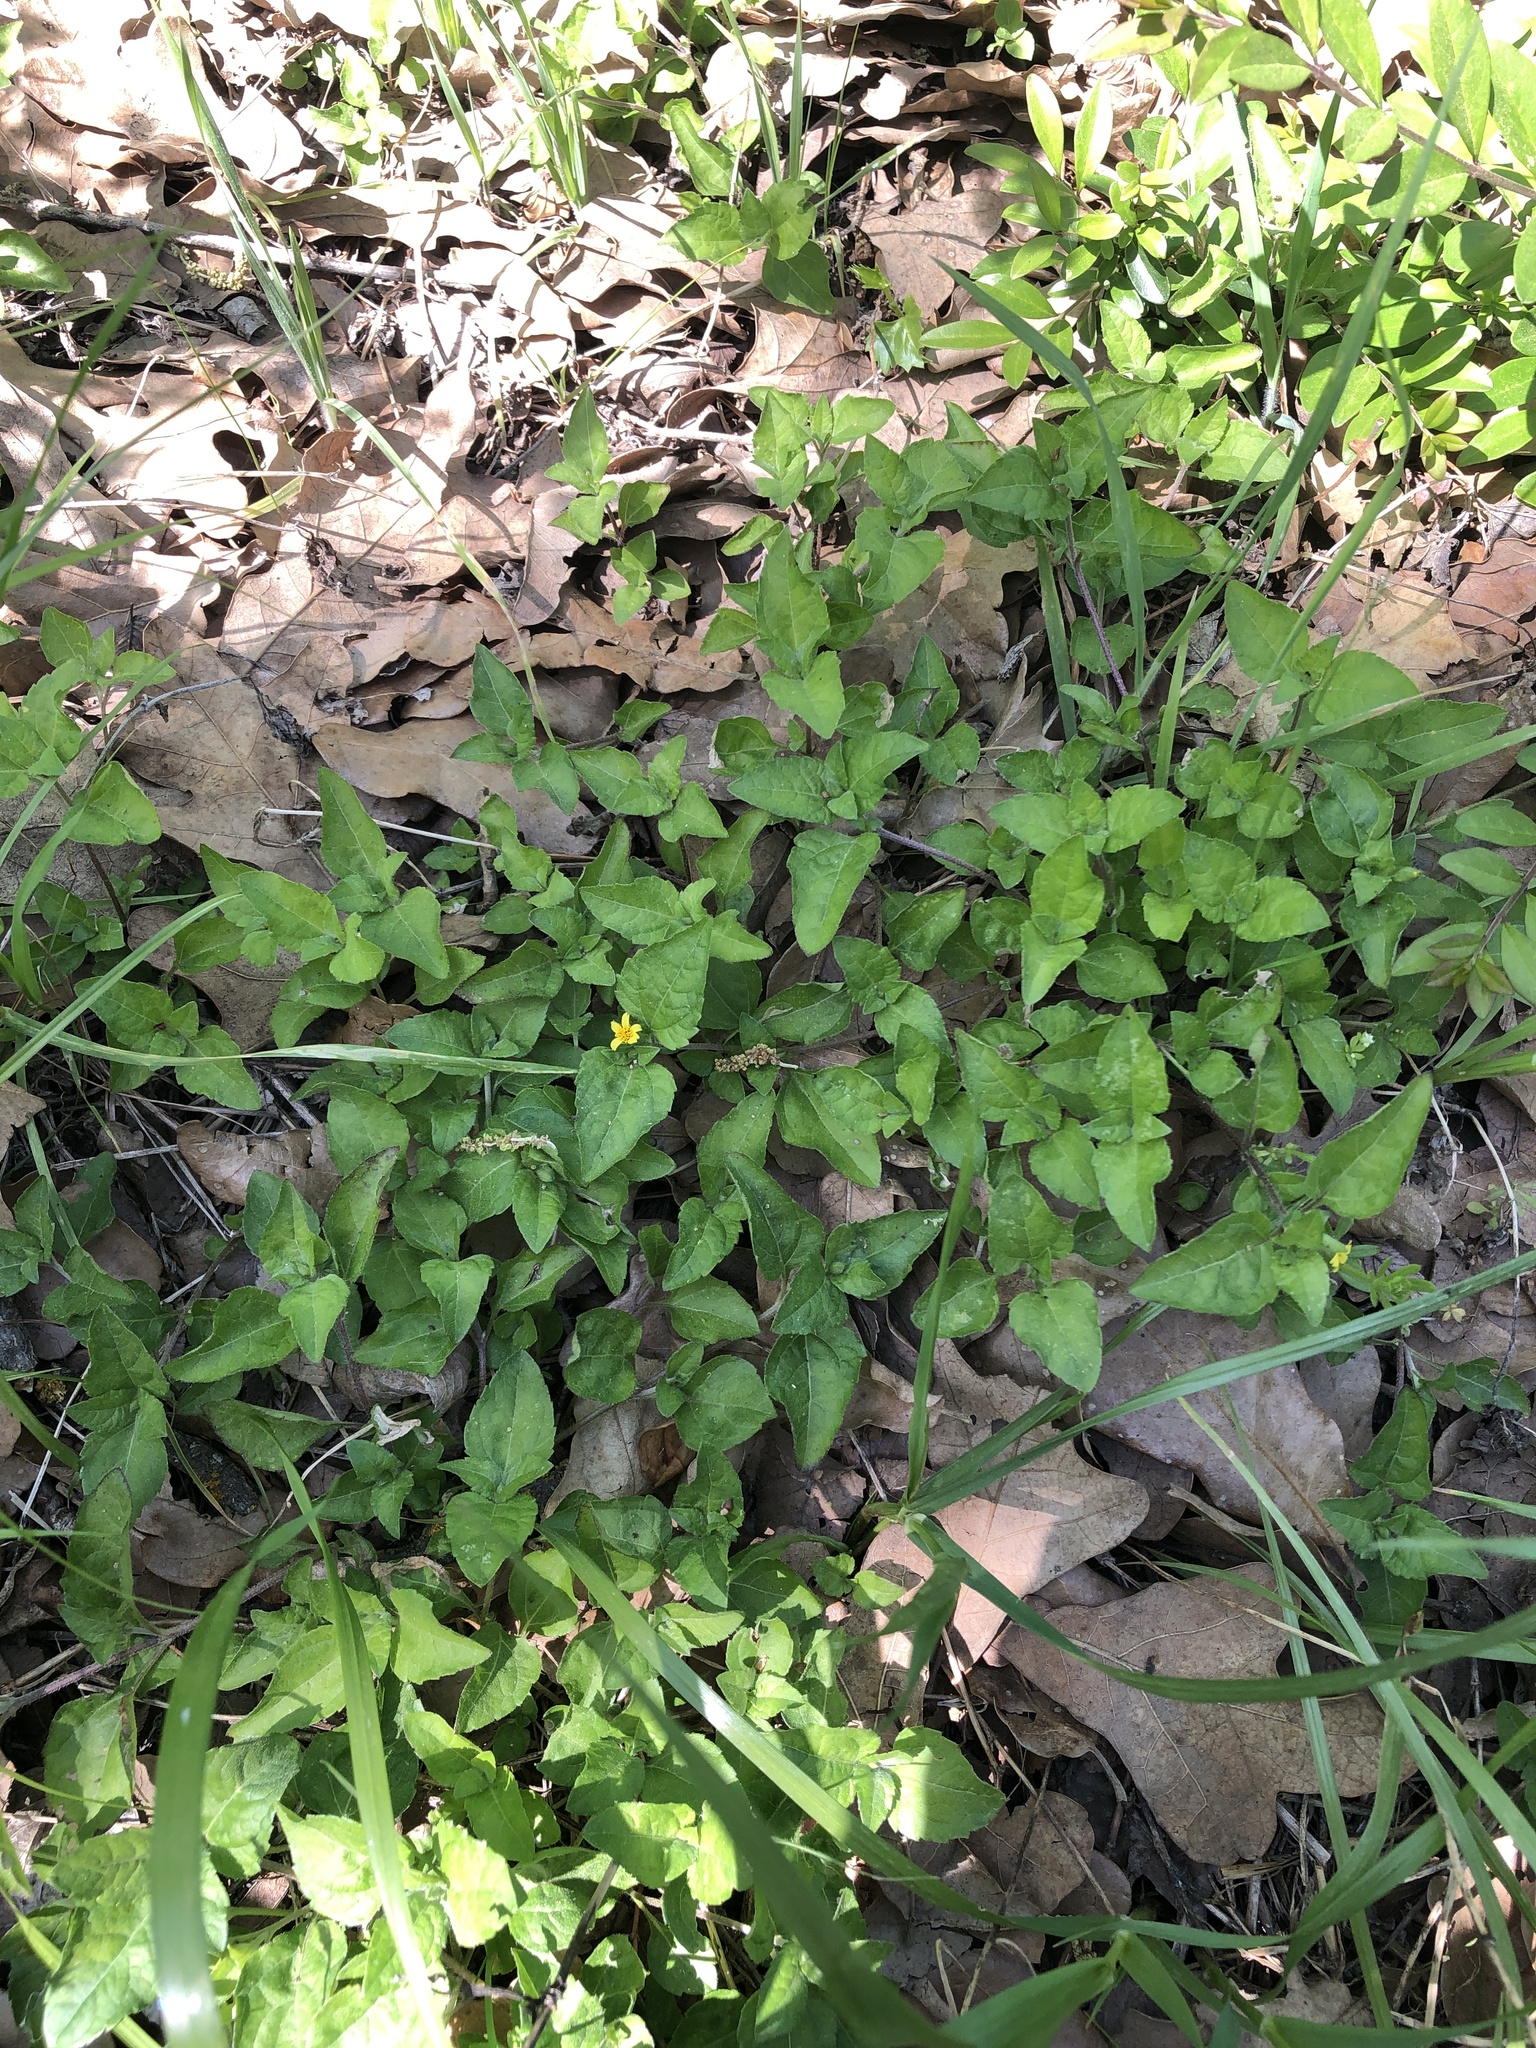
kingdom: Plantae
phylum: Tracheophyta
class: Magnoliopsida
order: Asterales
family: Asteraceae
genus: Calyptocarpus
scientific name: Calyptocarpus vialis
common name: Straggler daisy
